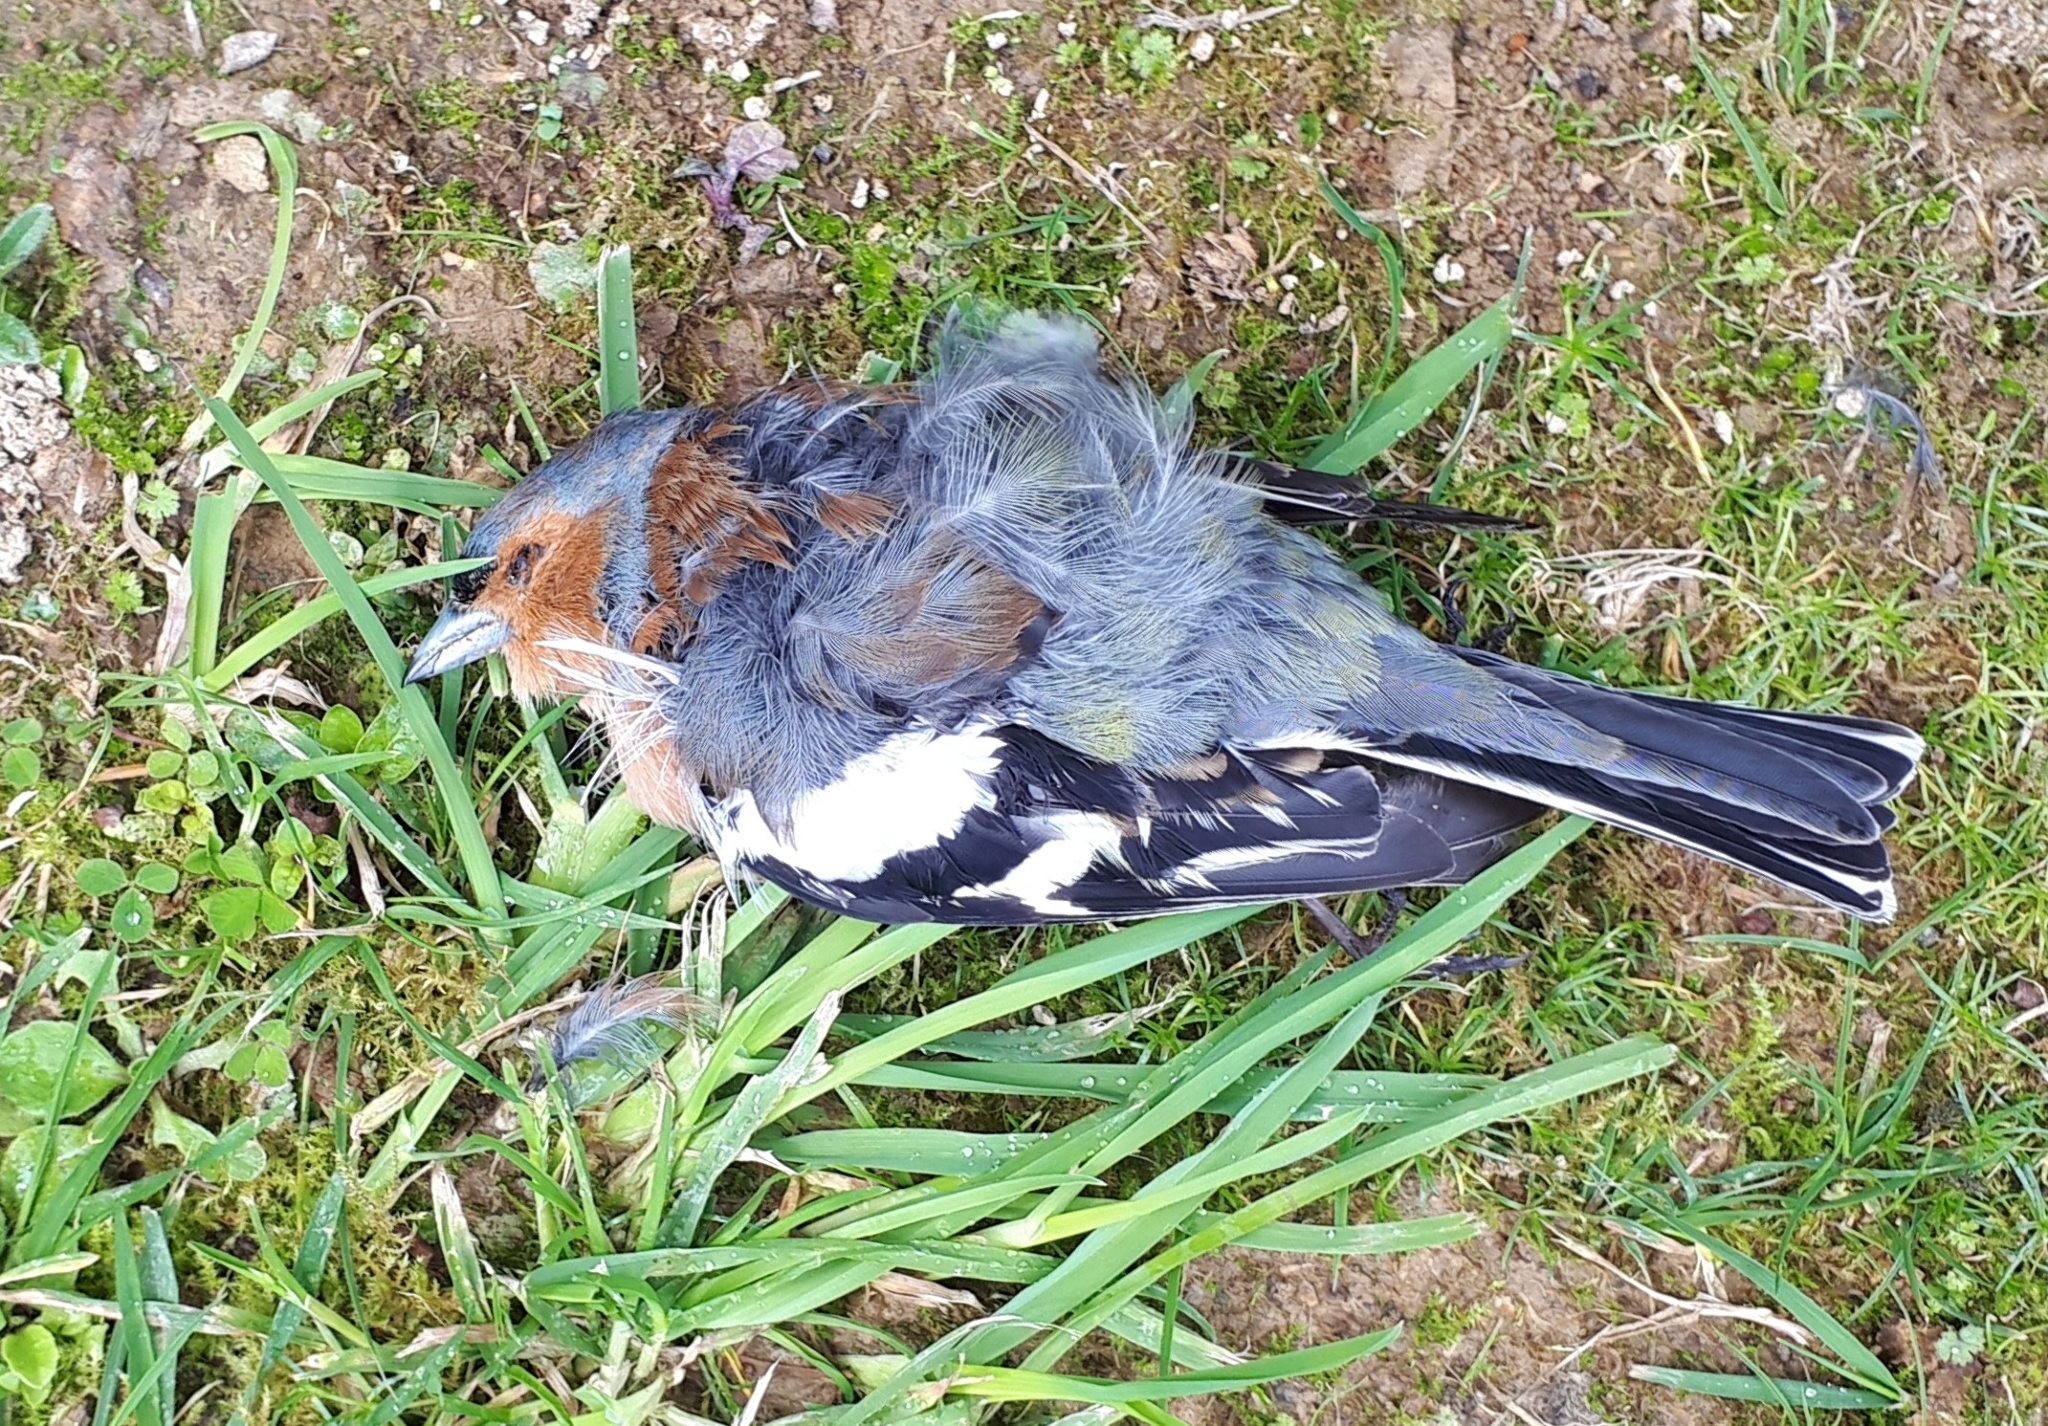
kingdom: Animalia
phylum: Chordata
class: Aves
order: Passeriformes
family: Fringillidae
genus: Fringilla
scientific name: Fringilla coelebs
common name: Common chaffinch
